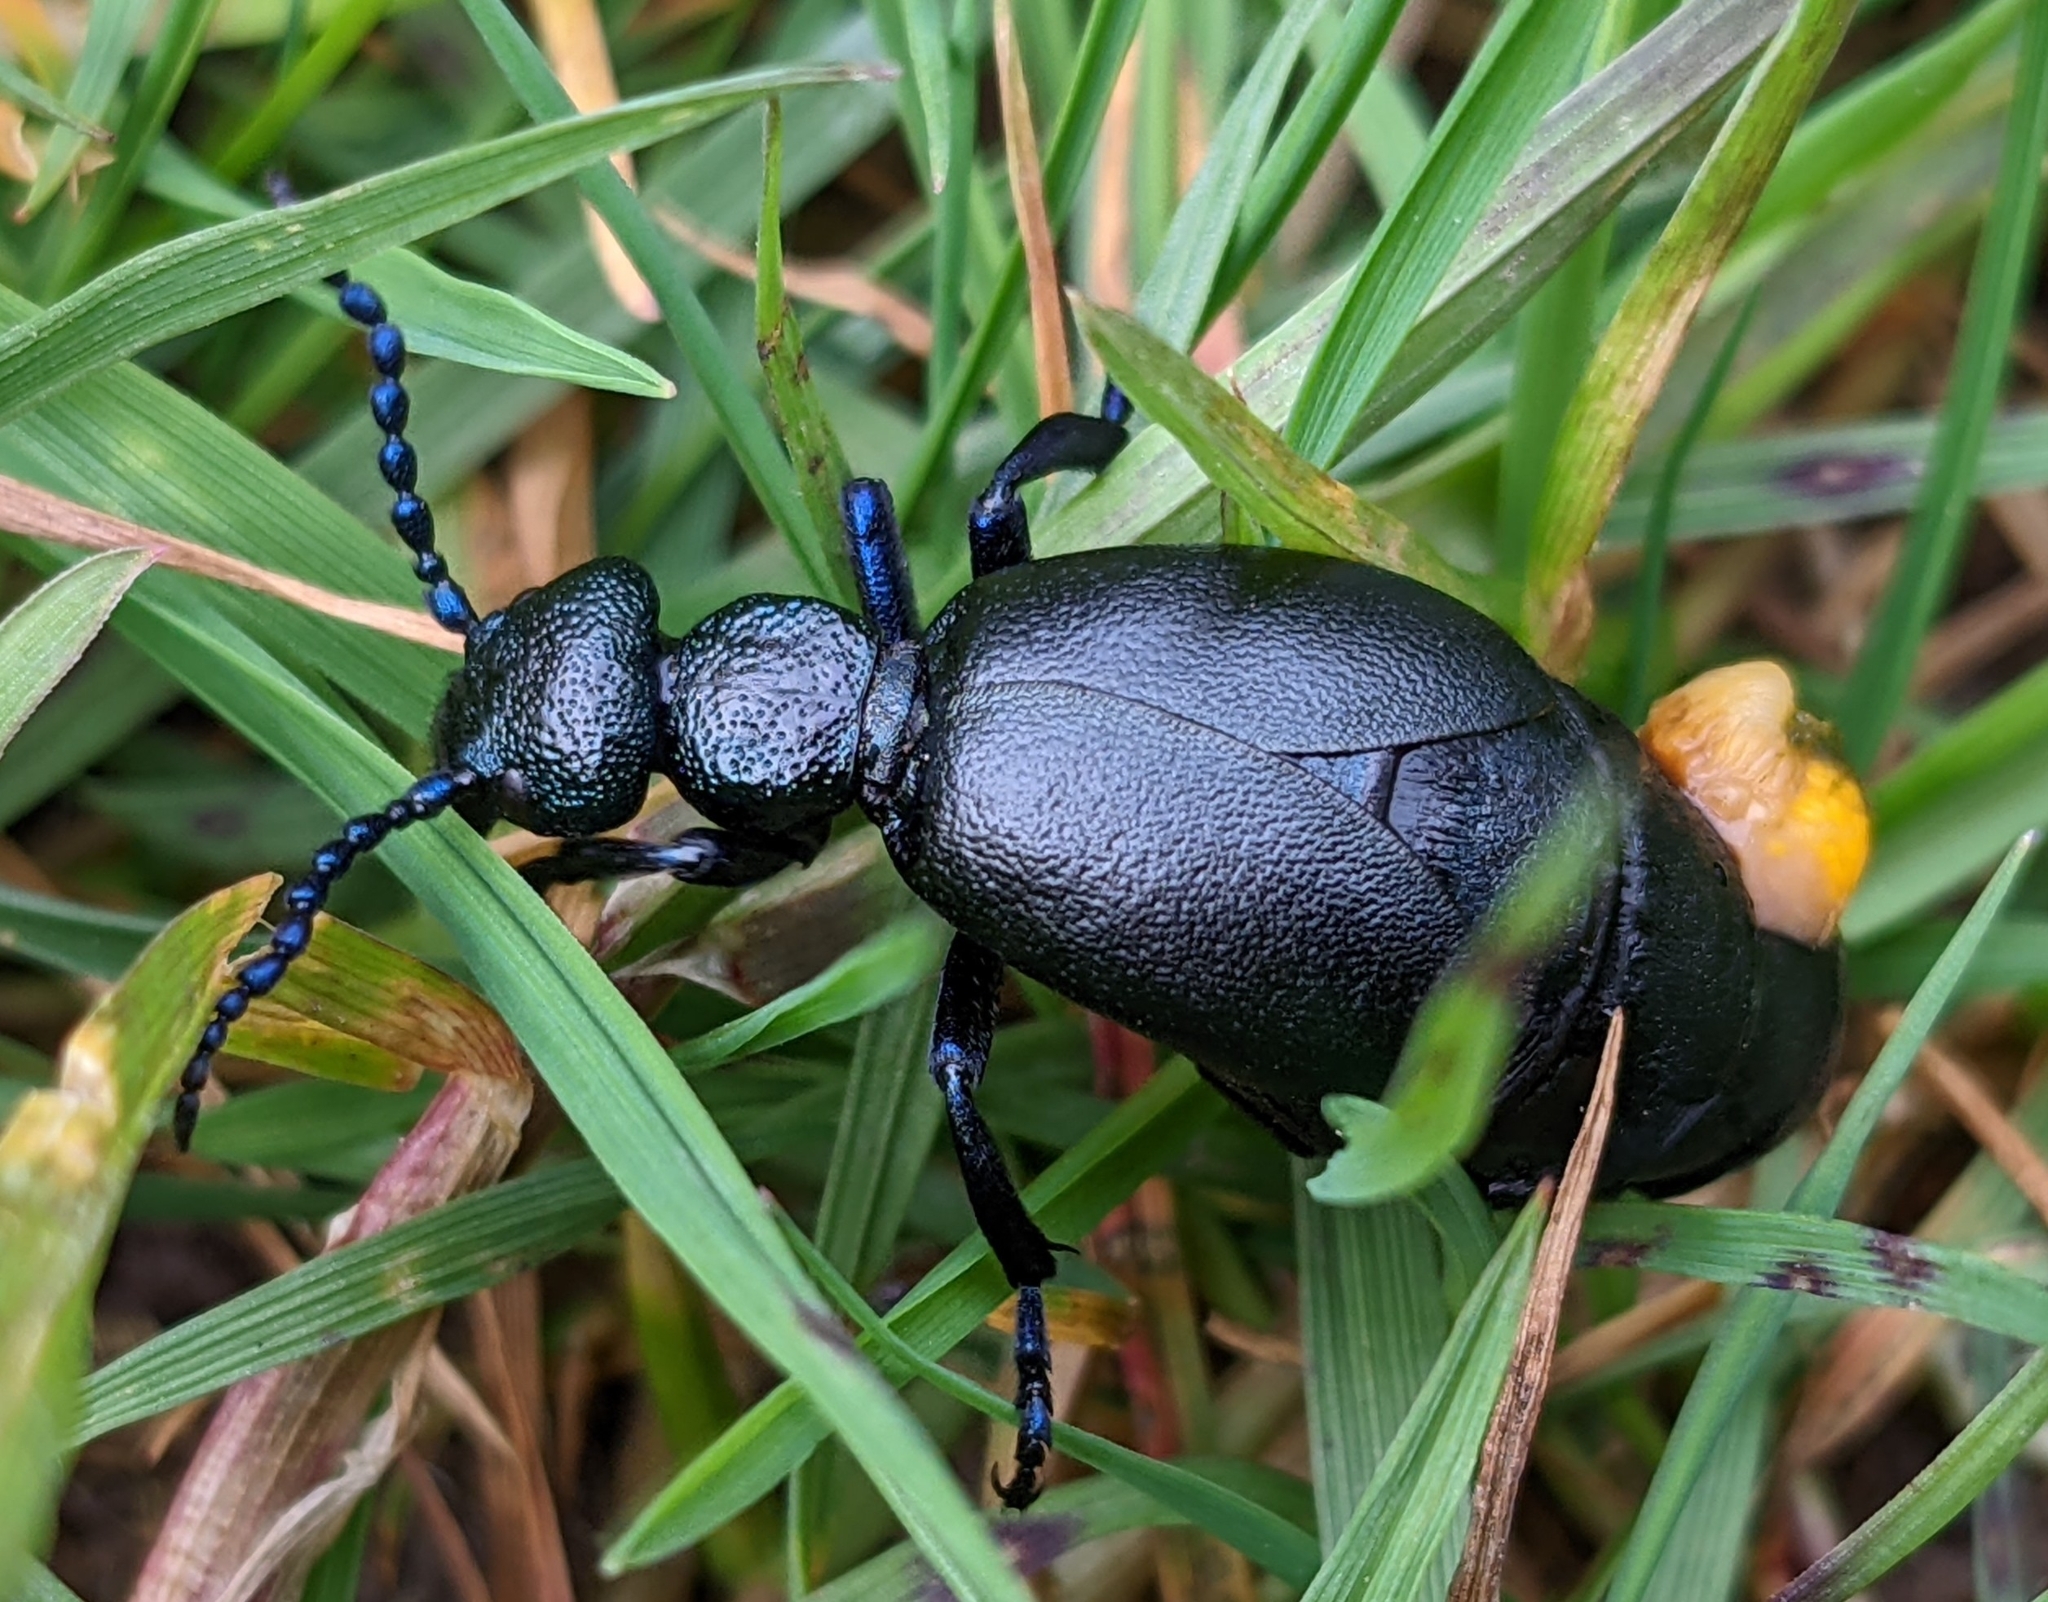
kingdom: Animalia
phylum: Arthropoda
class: Insecta
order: Coleoptera
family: Meloidae
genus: Meloe
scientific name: Meloe proscarabaeus
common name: Black oil-beetle
